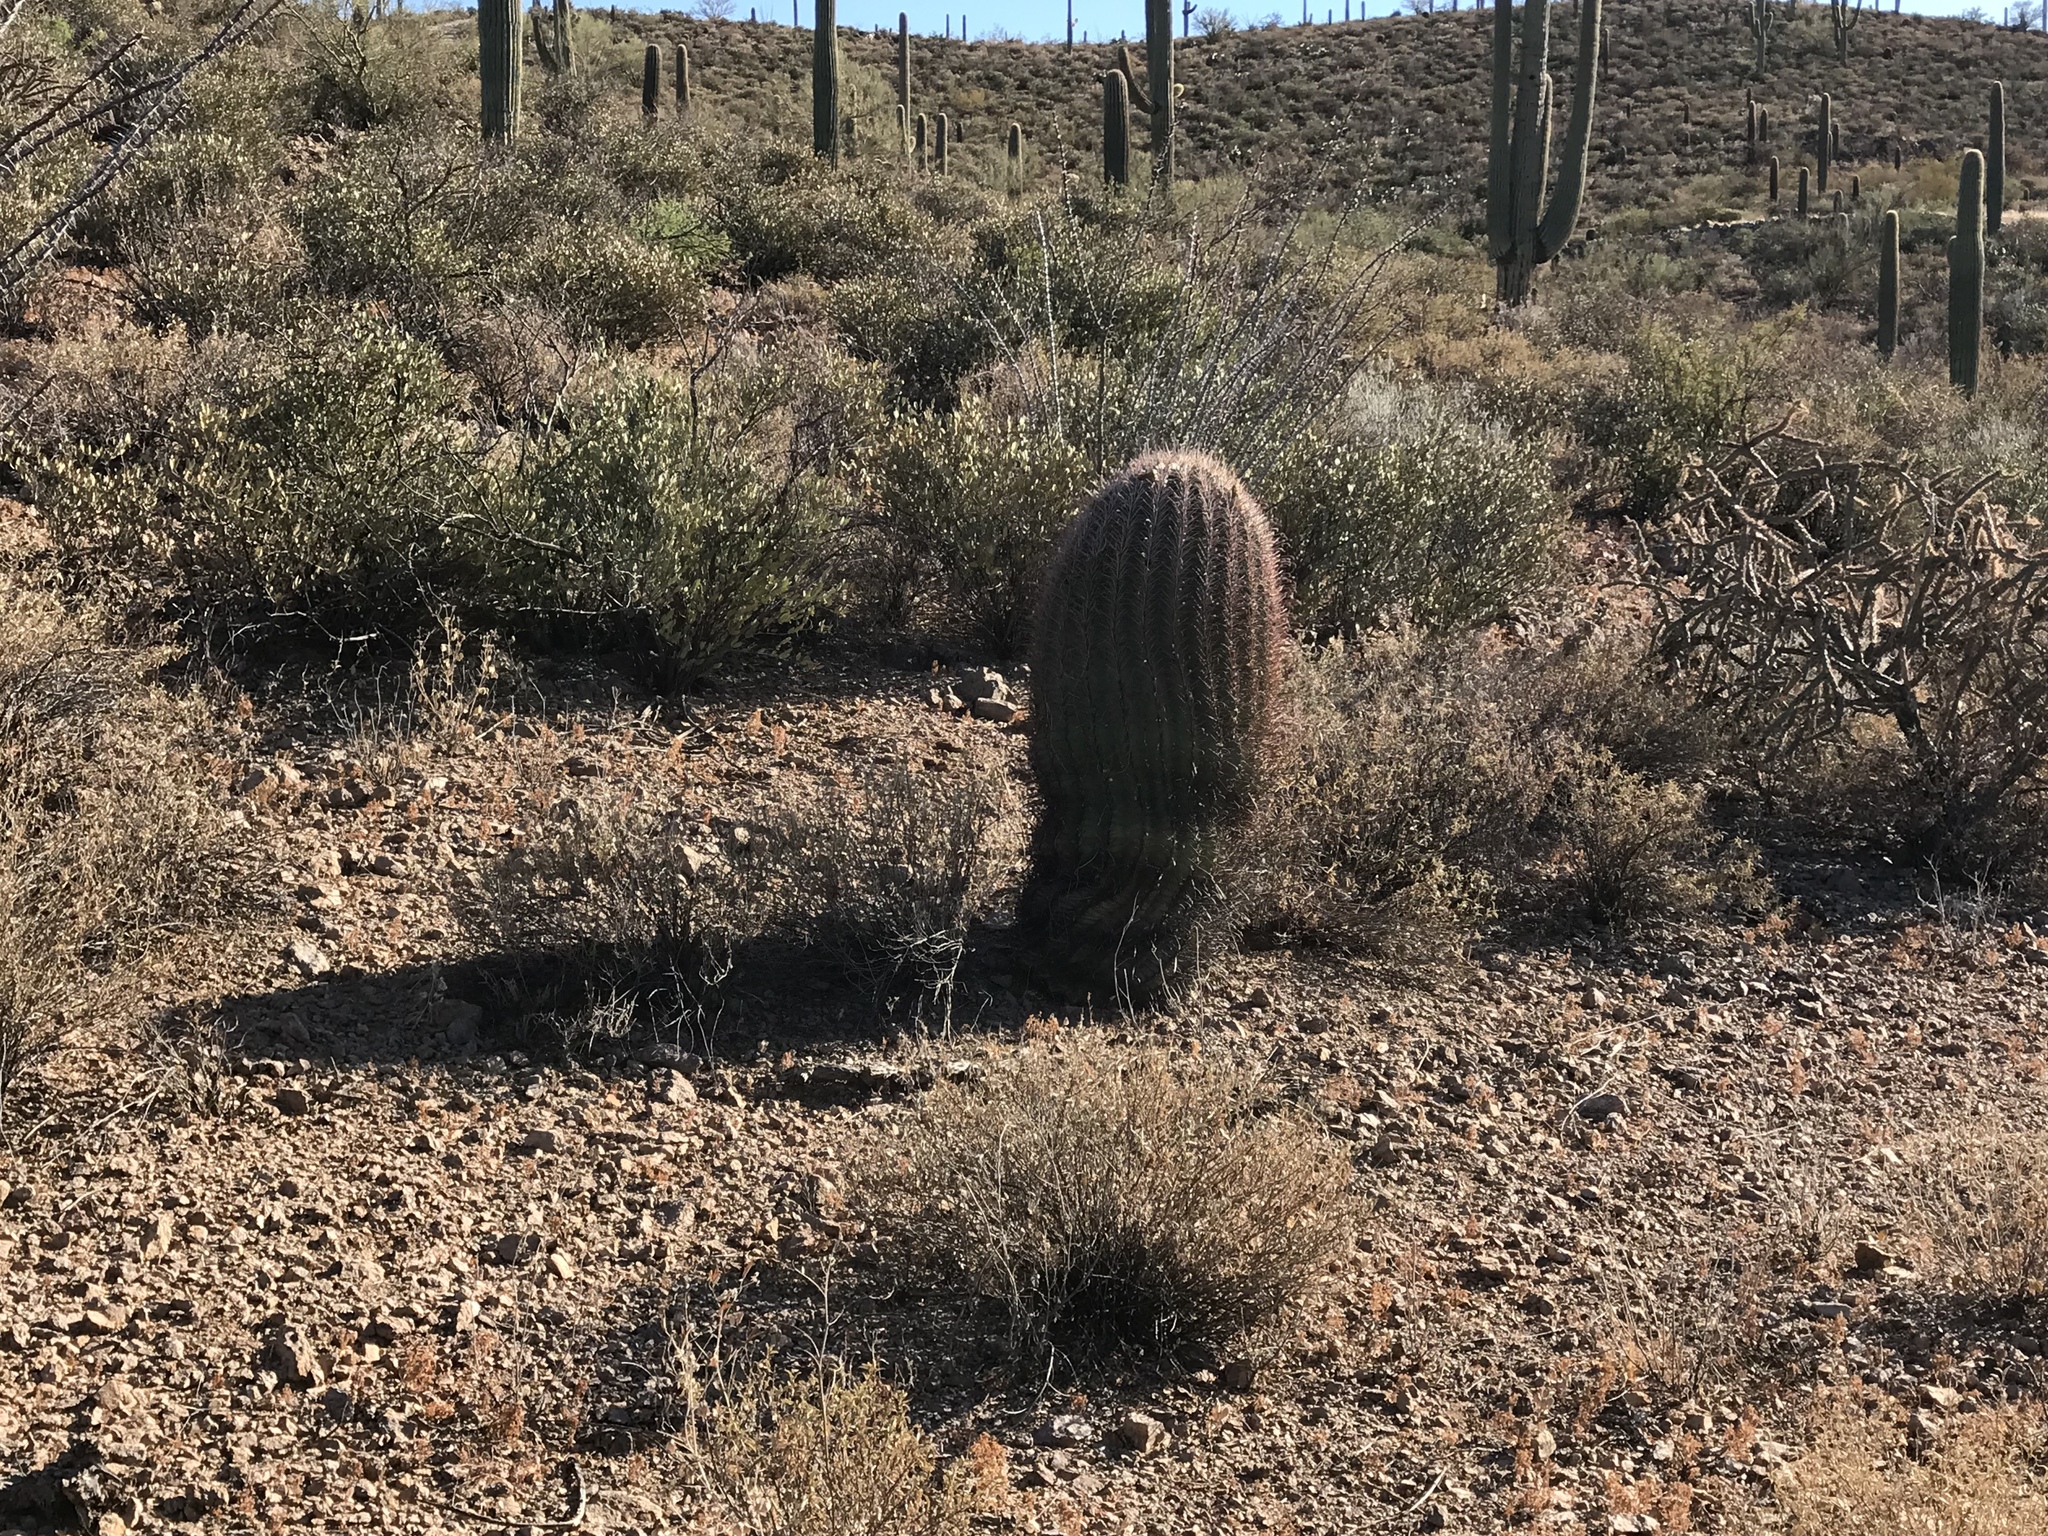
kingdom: Plantae
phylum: Tracheophyta
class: Magnoliopsida
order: Caryophyllales
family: Cactaceae
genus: Ferocactus
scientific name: Ferocactus wislizeni
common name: Candy barrel cactus
